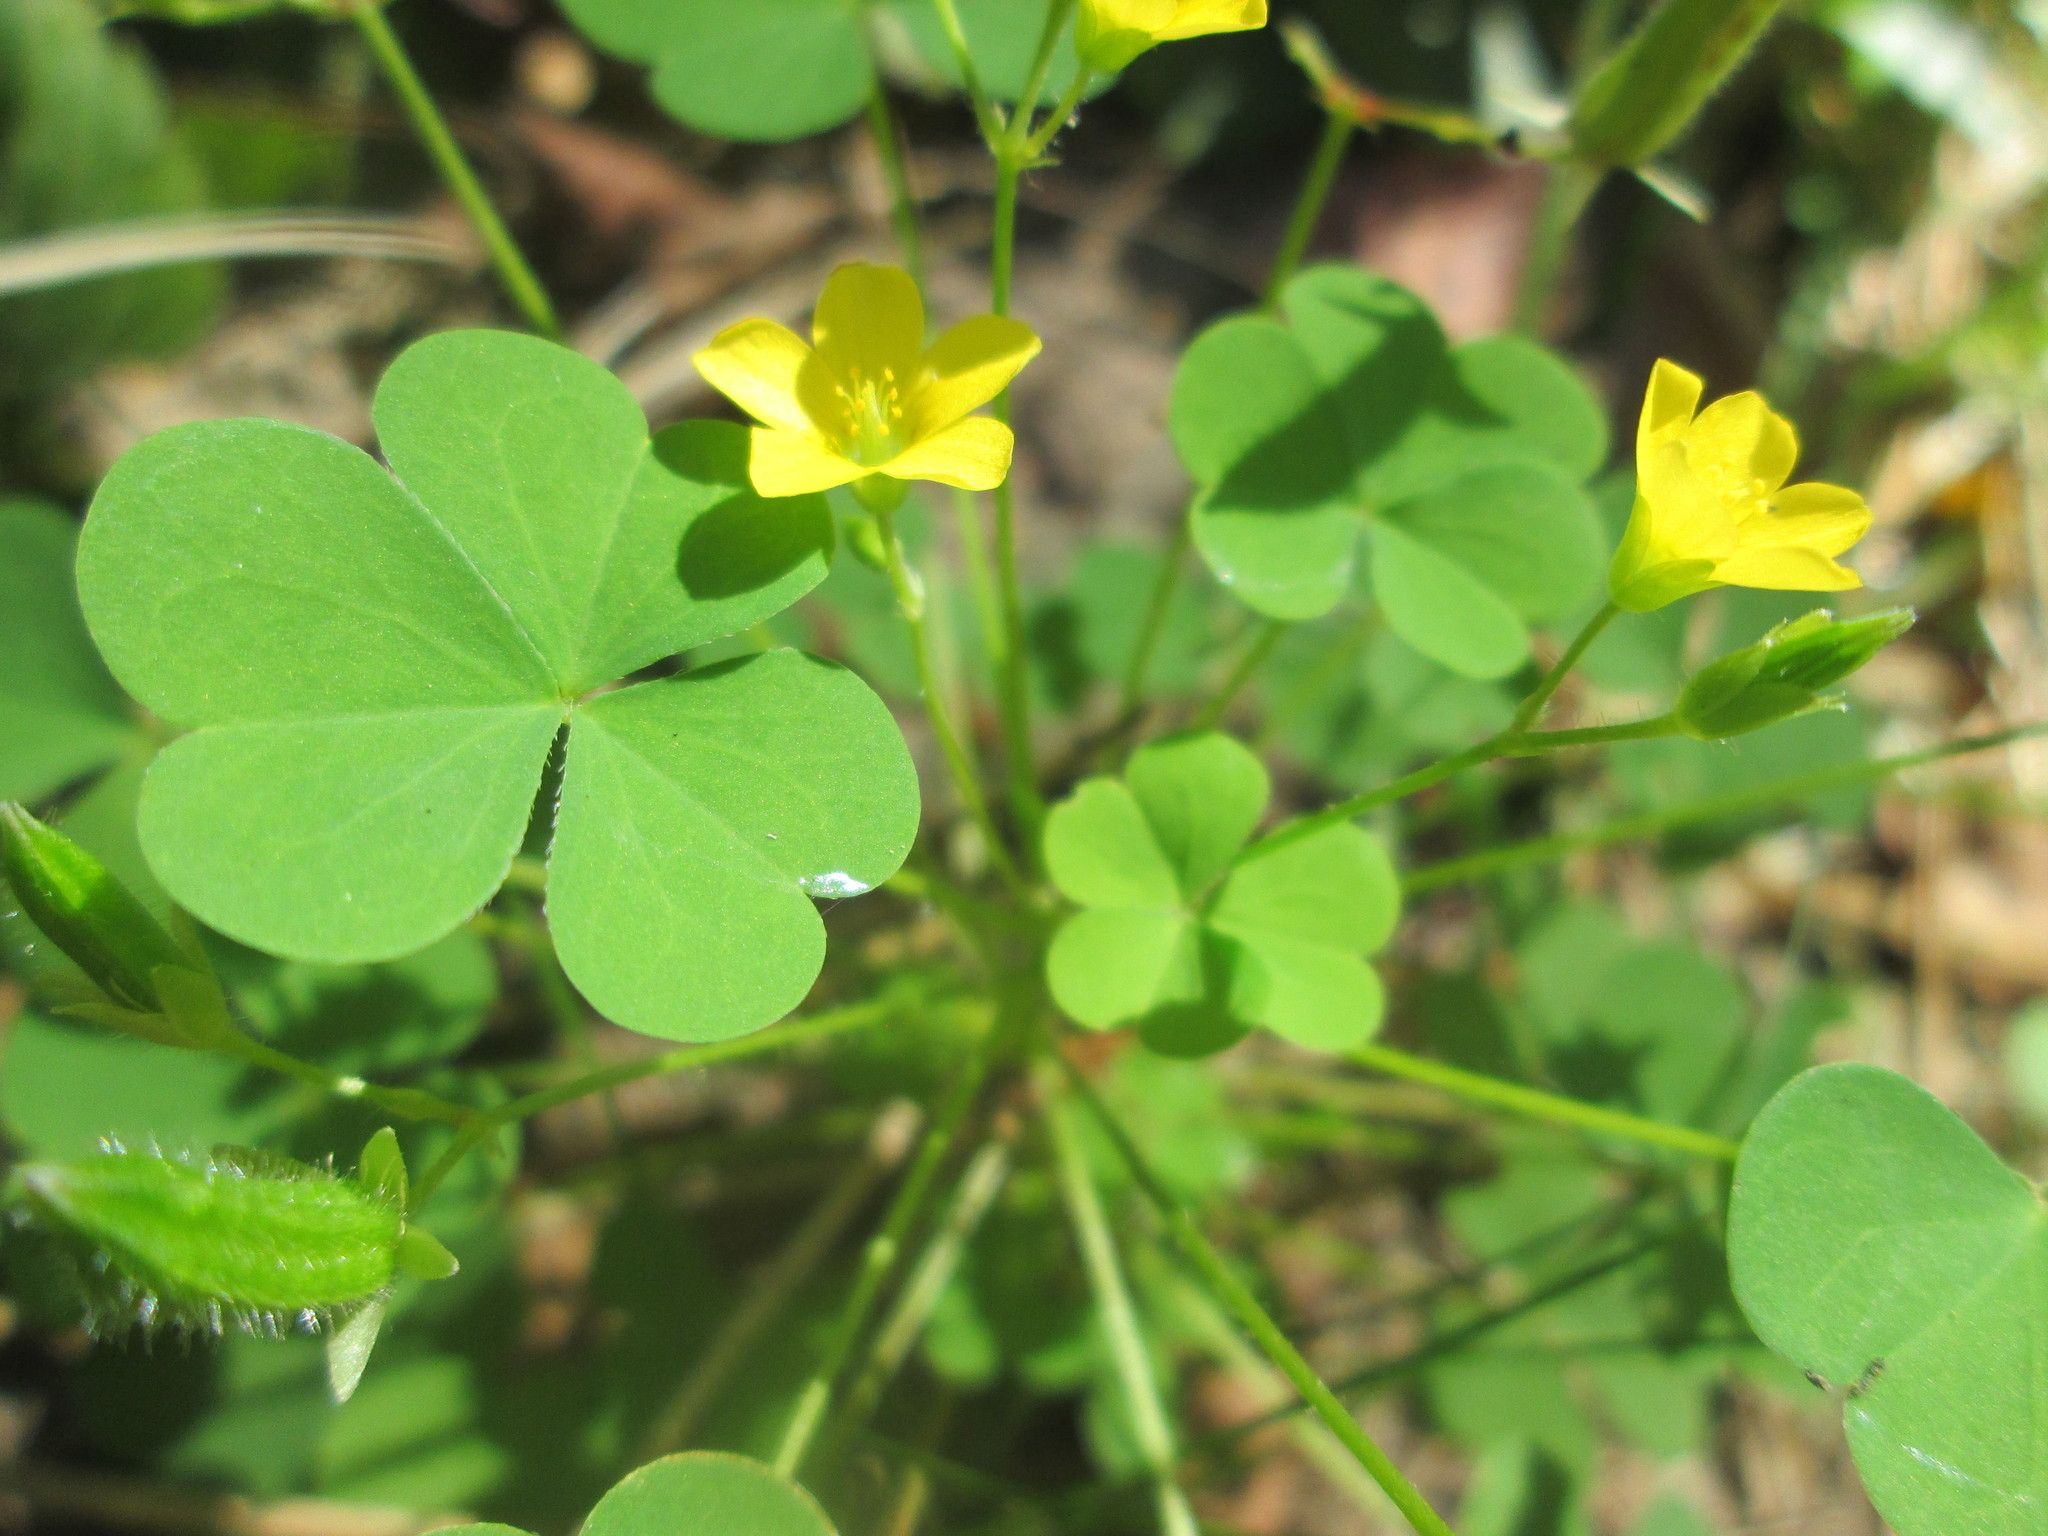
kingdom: Plantae
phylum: Tracheophyta
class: Magnoliopsida
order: Oxalidales
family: Oxalidaceae
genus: Oxalis
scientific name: Oxalis stricta
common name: Upright yellow-sorrel
